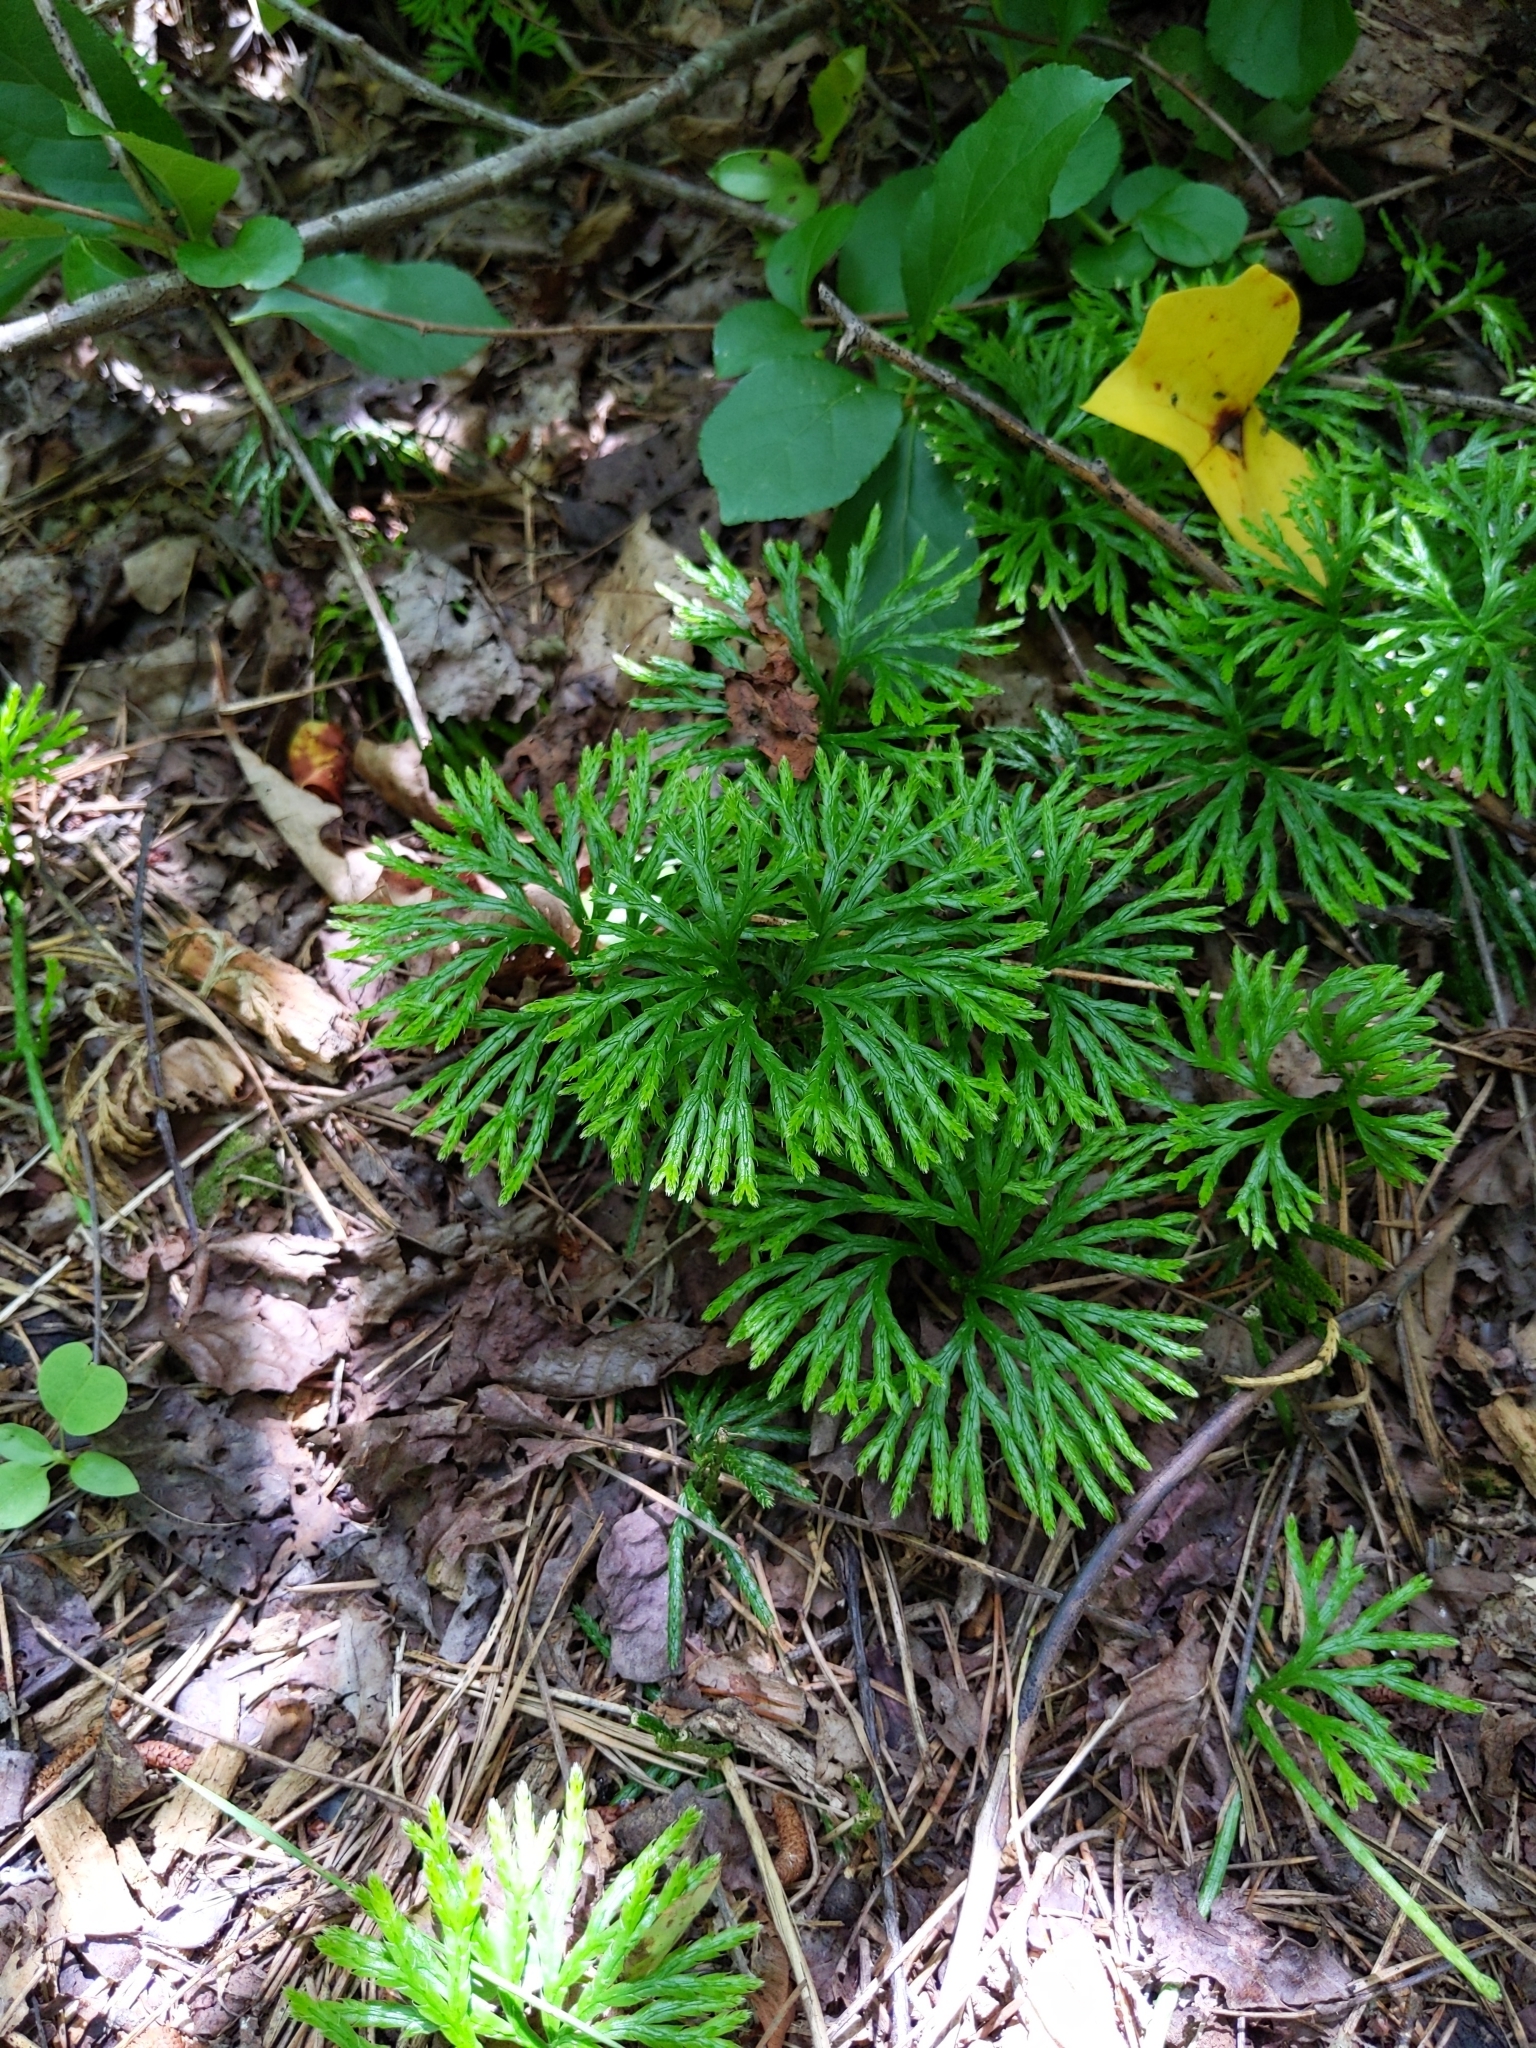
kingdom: Plantae
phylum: Tracheophyta
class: Lycopodiopsida
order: Lycopodiales
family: Lycopodiaceae
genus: Diphasiastrum
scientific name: Diphasiastrum digitatum
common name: Southern running-pine
